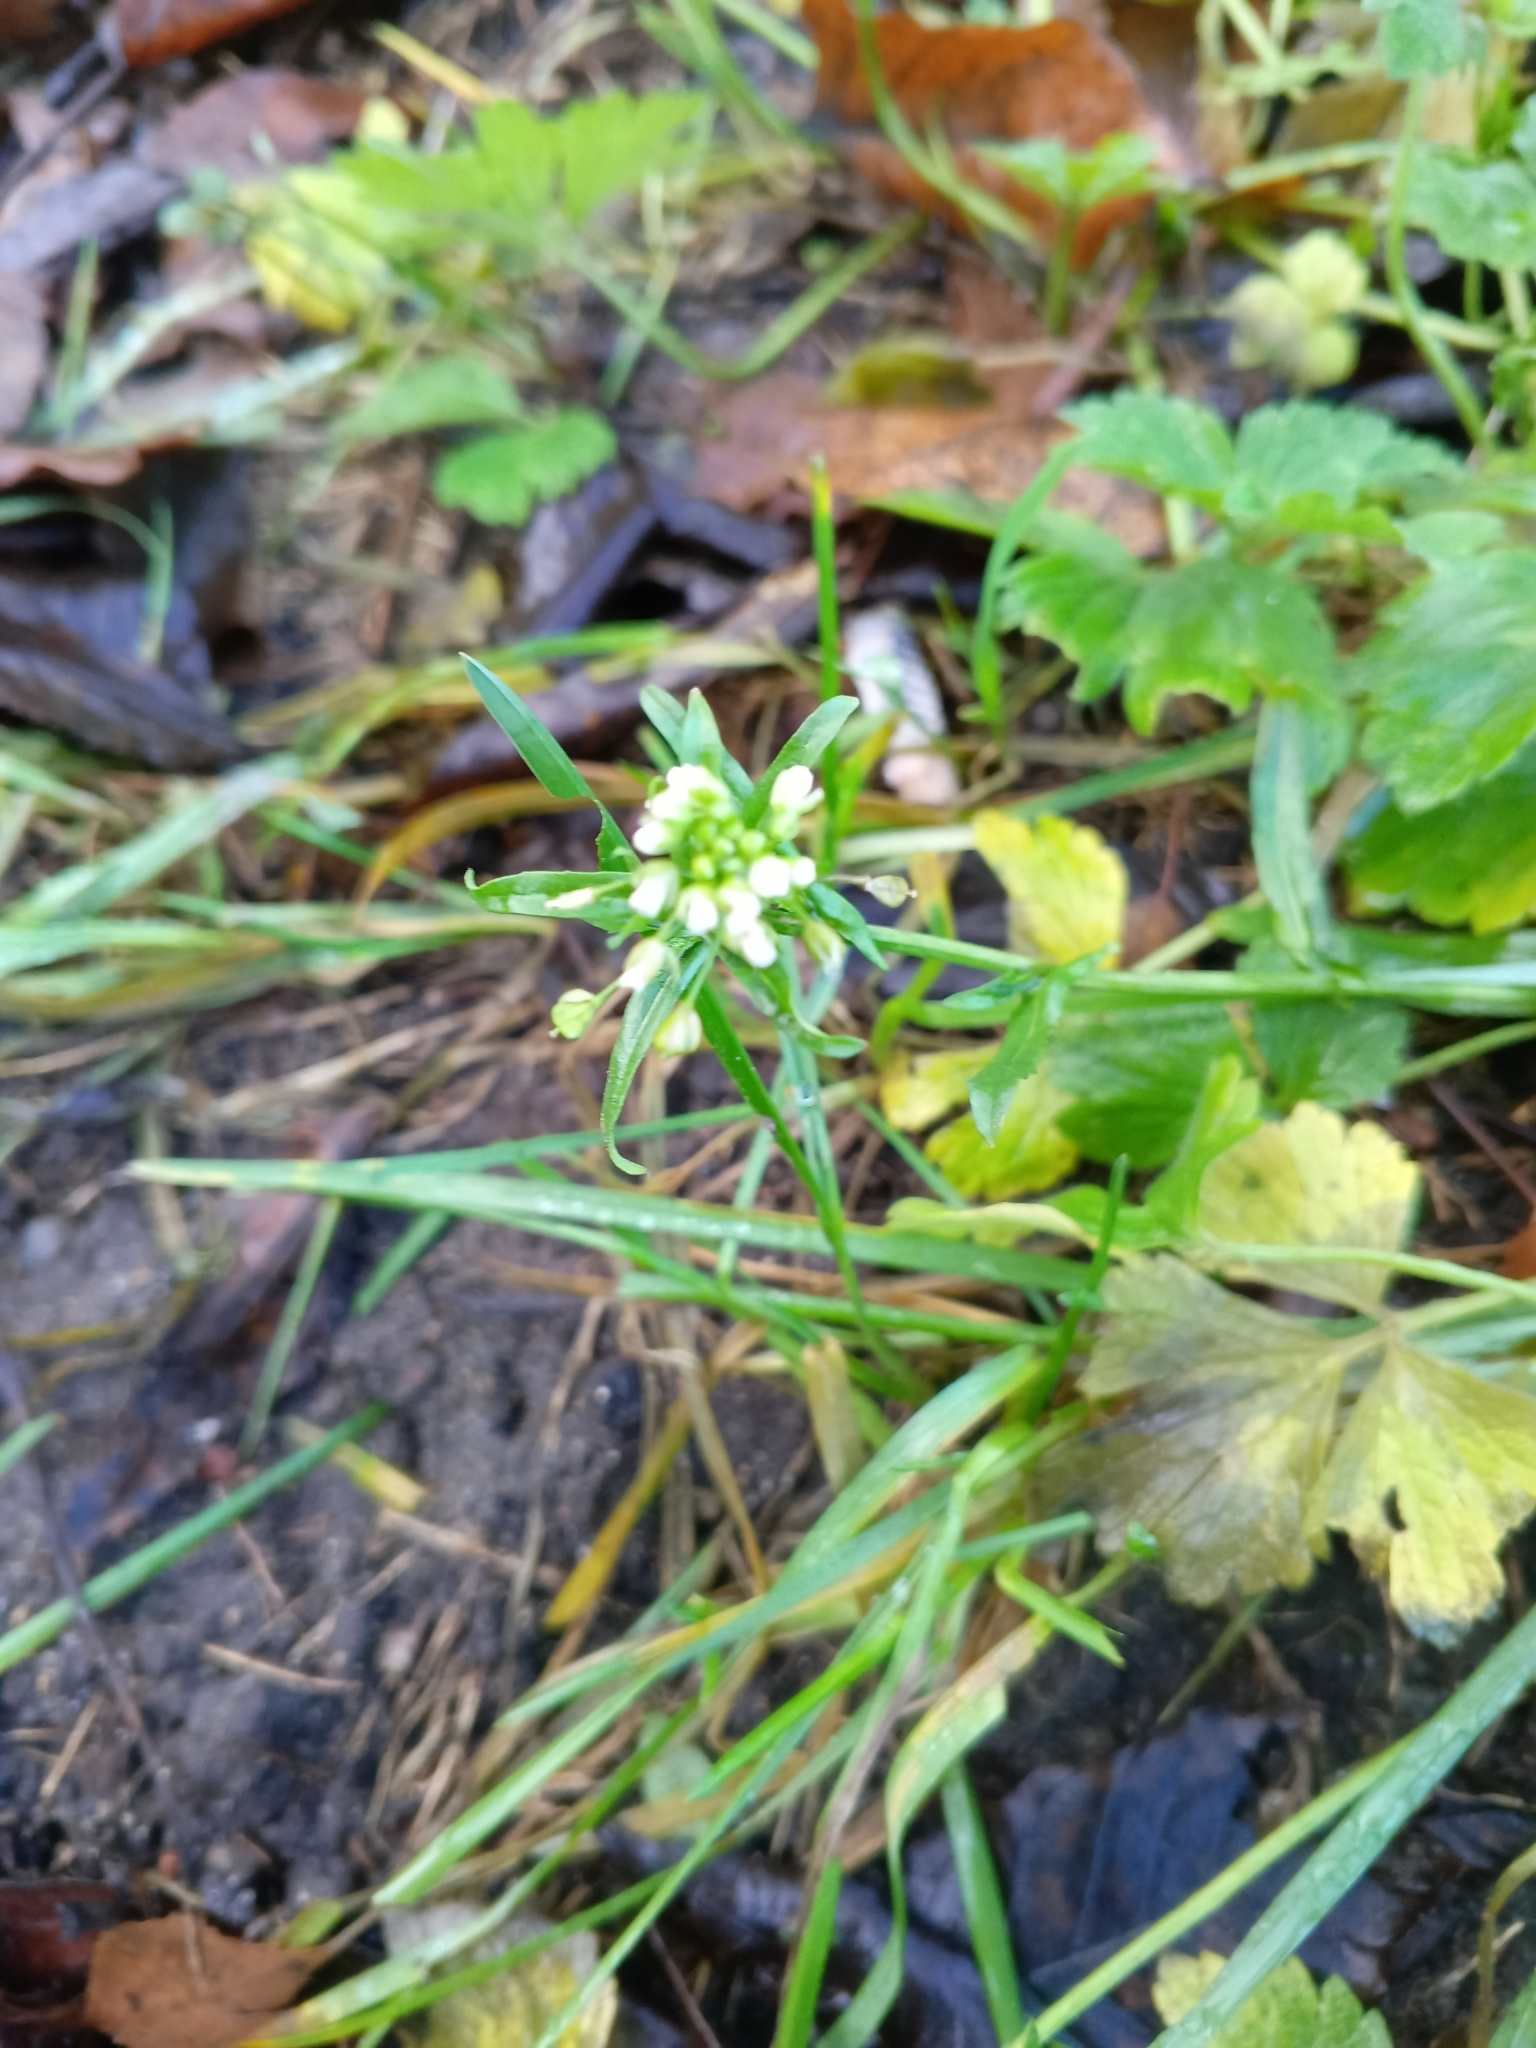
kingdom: Plantae
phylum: Tracheophyta
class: Magnoliopsida
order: Brassicales
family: Brassicaceae
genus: Capsella
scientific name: Capsella bursa-pastoris
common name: Shepherd's purse
